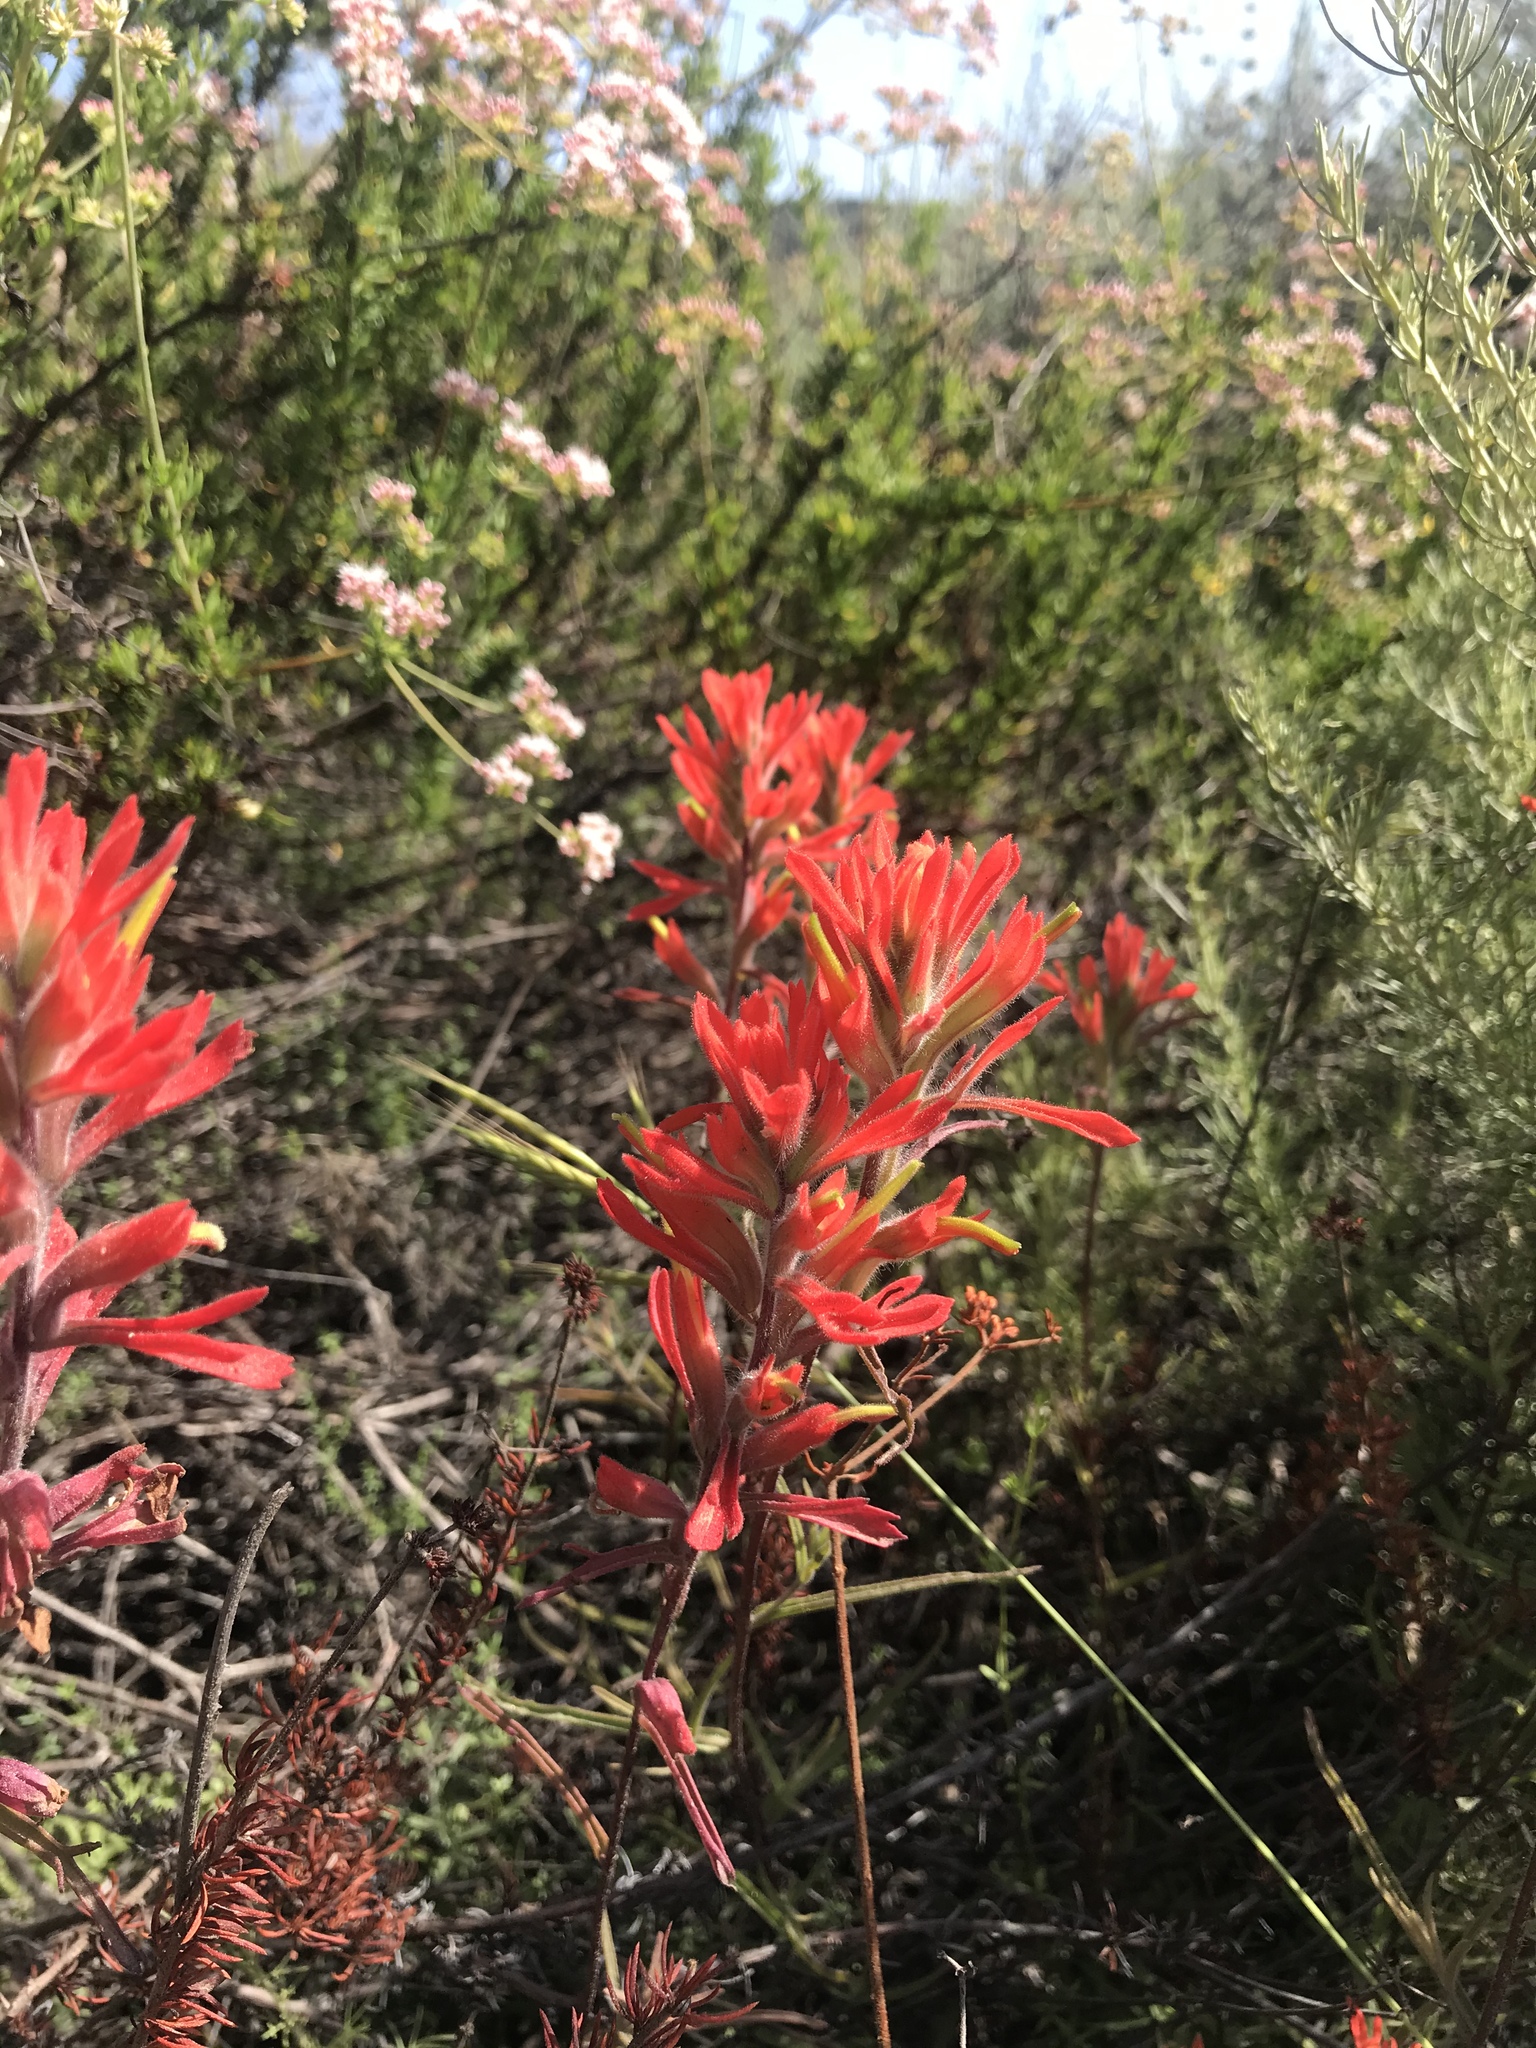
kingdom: Plantae
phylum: Tracheophyta
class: Magnoliopsida
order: Lamiales
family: Orobanchaceae
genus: Castilleja
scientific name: Castilleja affinis
